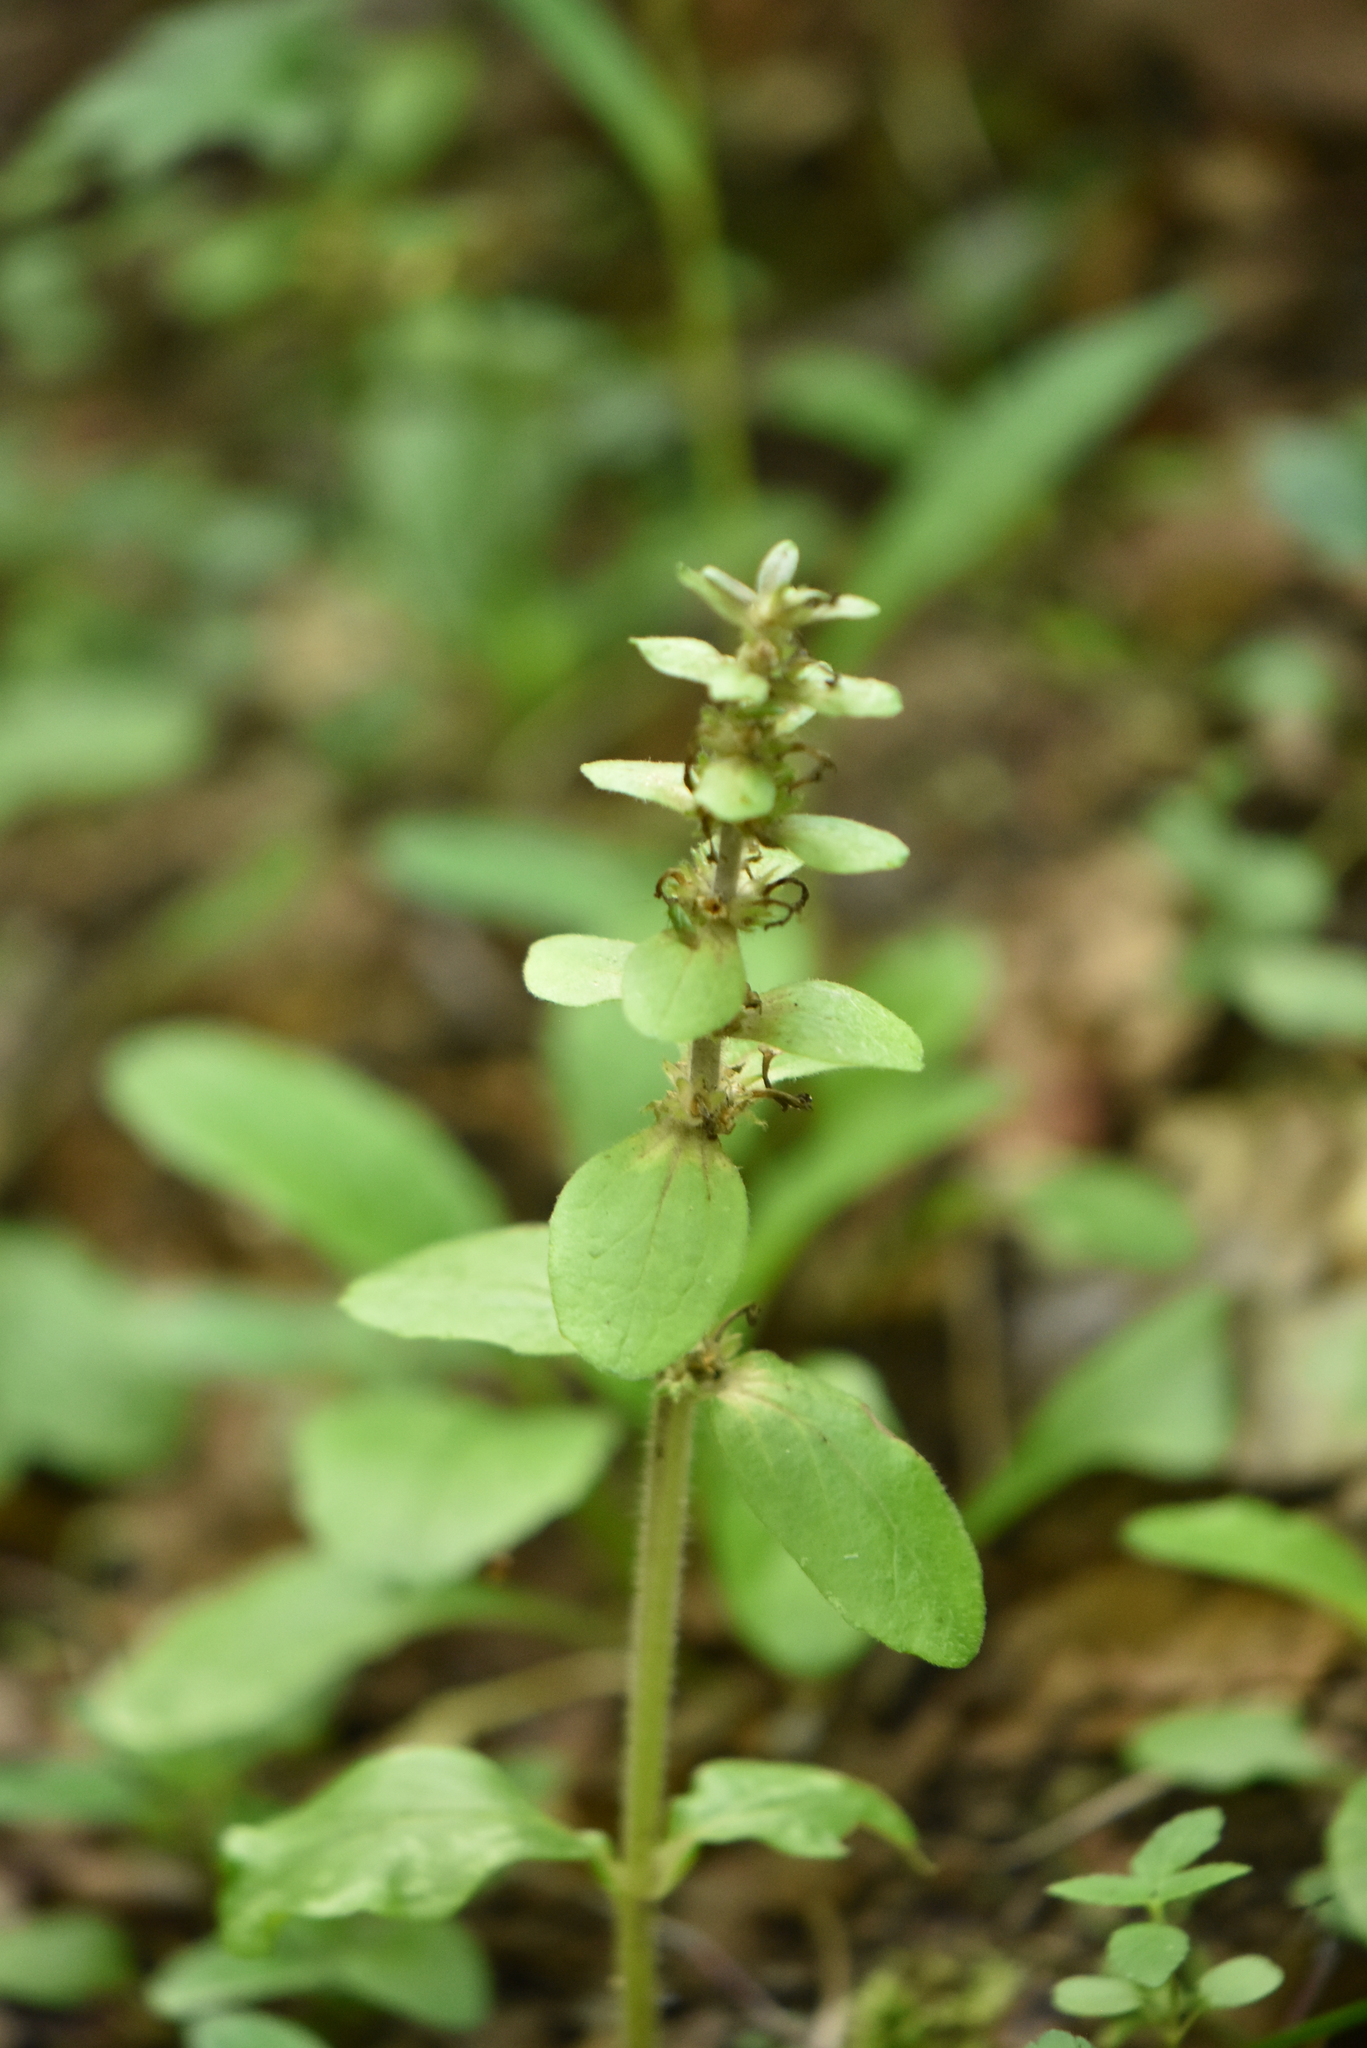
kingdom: Plantae
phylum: Tracheophyta
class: Magnoliopsida
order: Lamiales
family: Lamiaceae
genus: Ajuga
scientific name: Ajuga reptans
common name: Bugle
